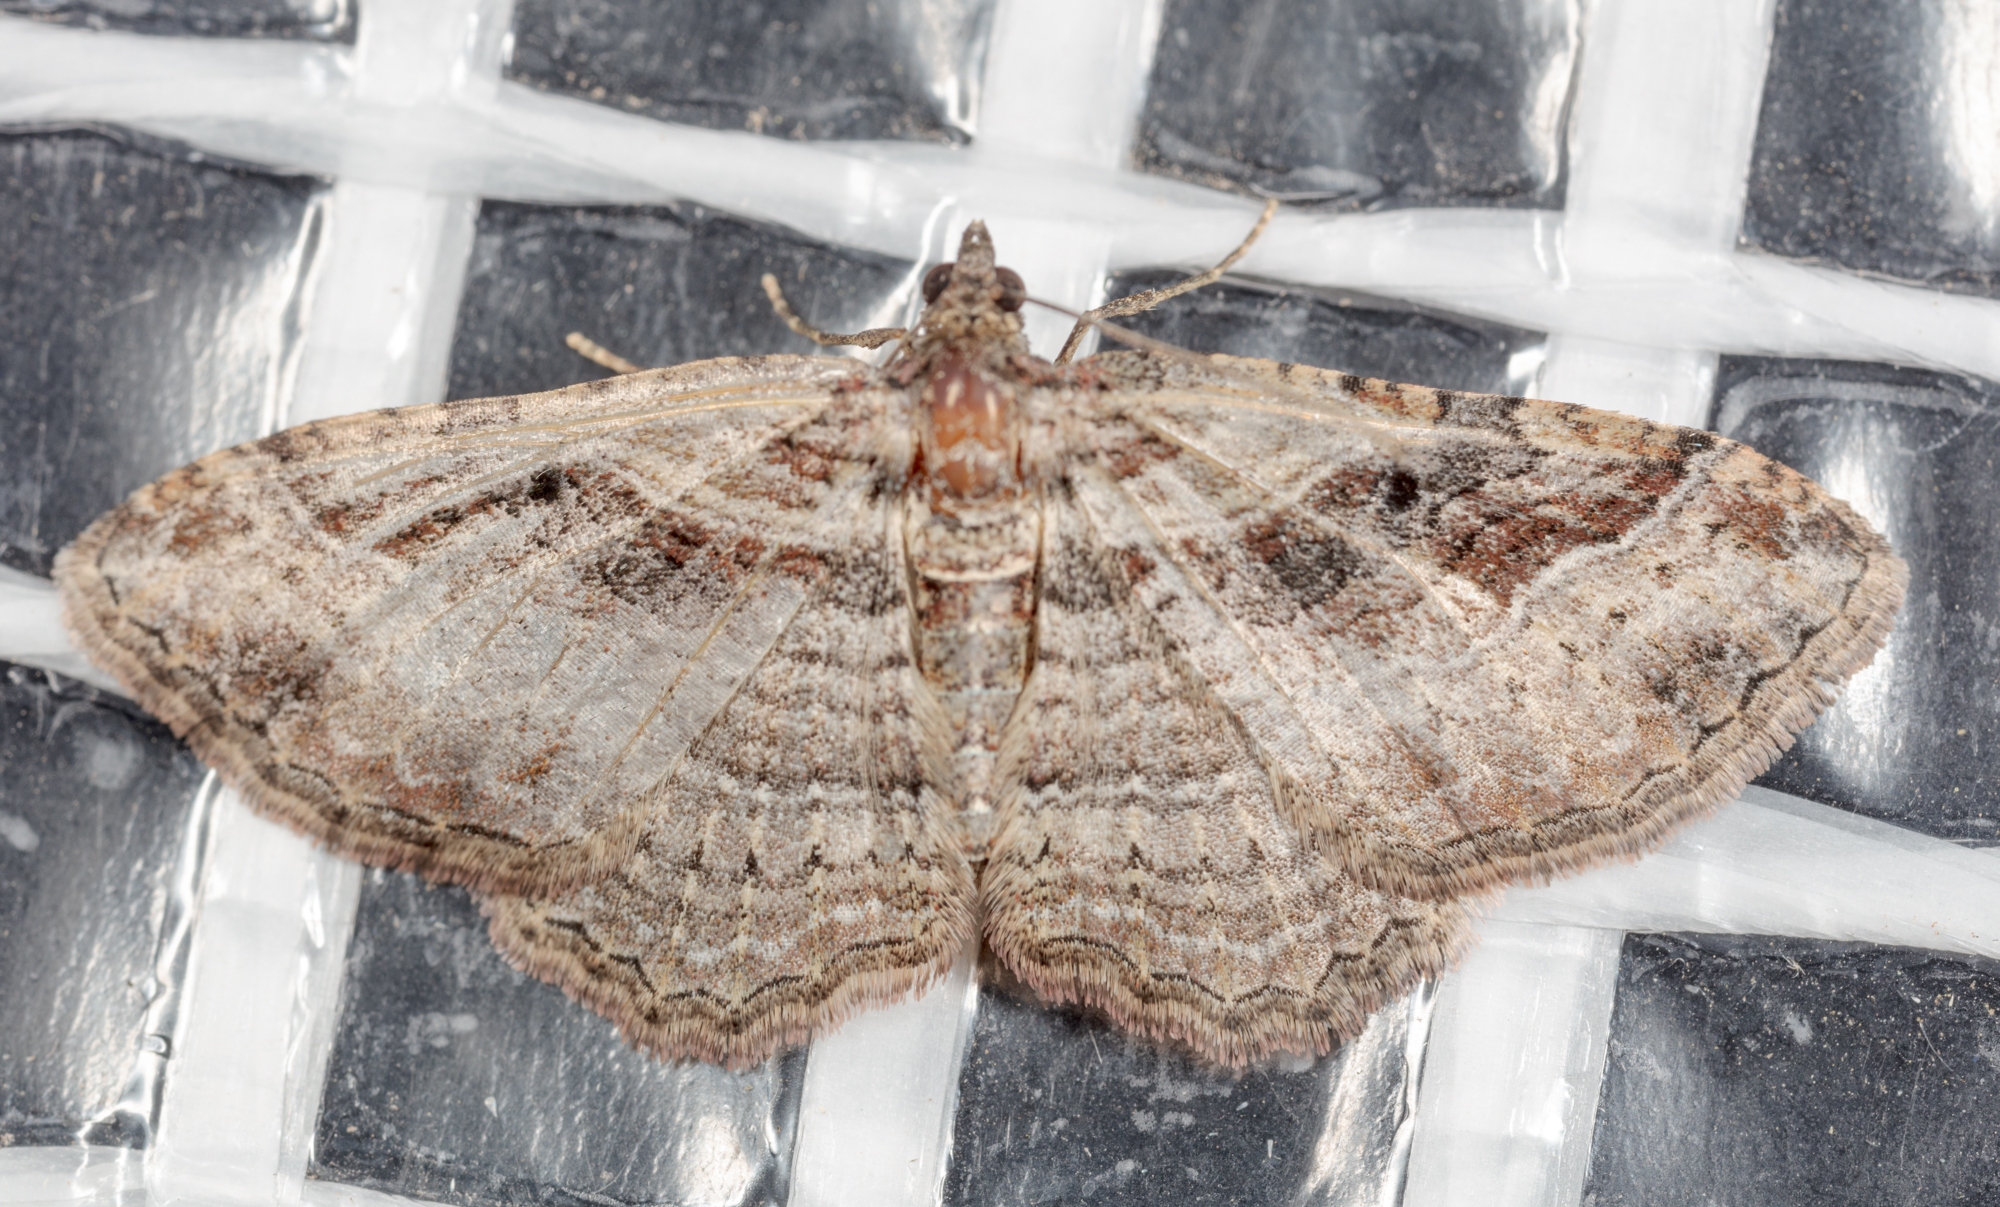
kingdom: Animalia
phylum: Arthropoda
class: Insecta
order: Lepidoptera
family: Geometridae
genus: Costaconvexa
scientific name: Costaconvexa centrostrigaria
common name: Bent-line carpet
